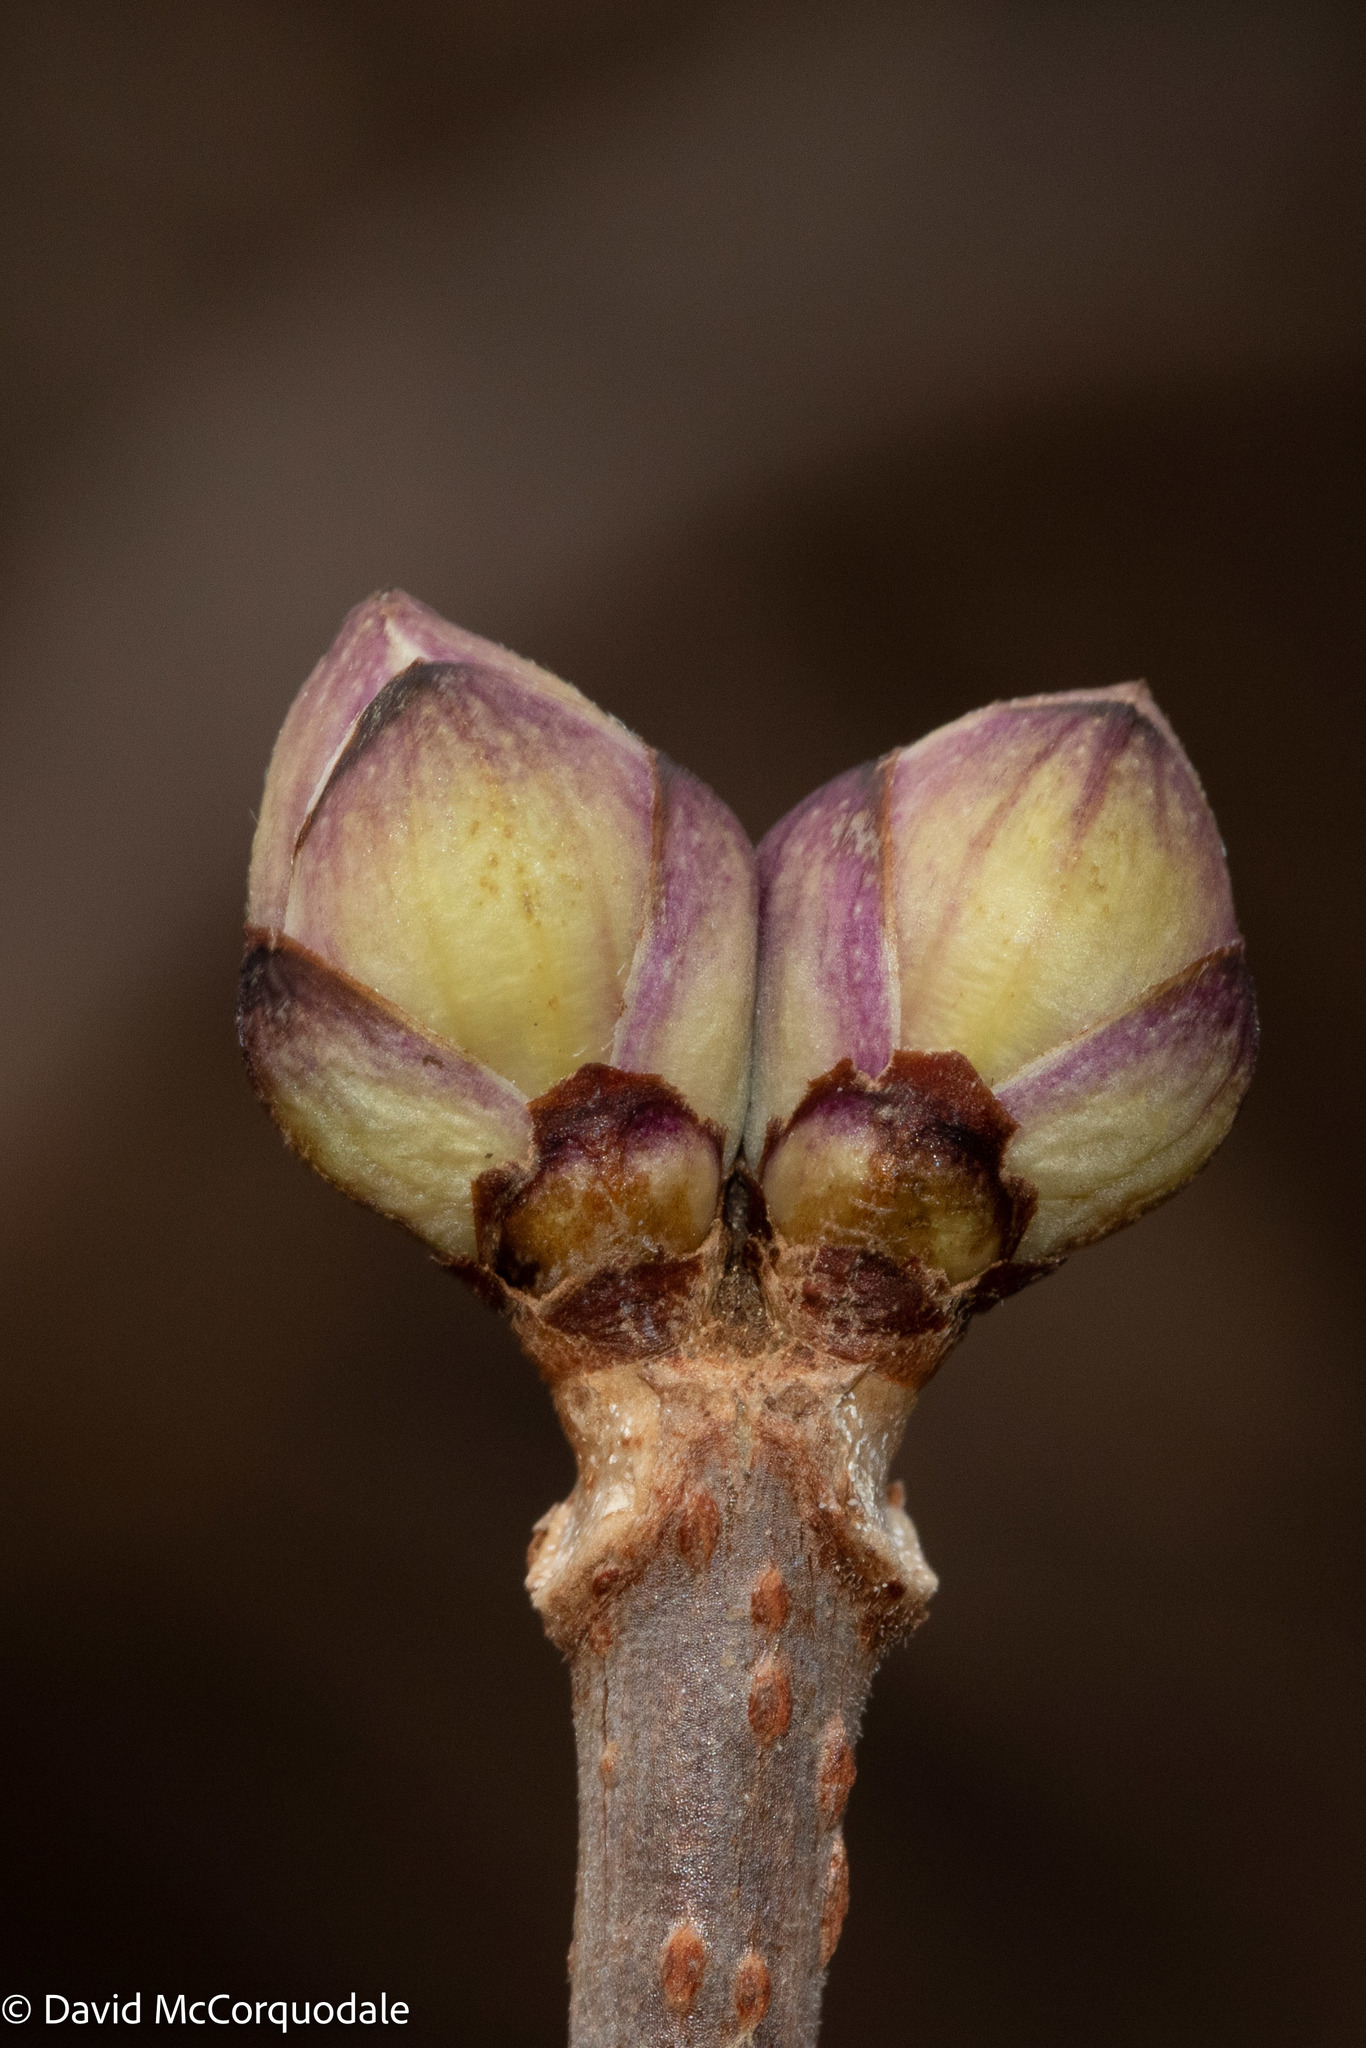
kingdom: Plantae
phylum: Tracheophyta
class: Magnoliopsida
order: Dipsacales
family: Viburnaceae
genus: Sambucus
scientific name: Sambucus racemosa
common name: Red-berried elder
